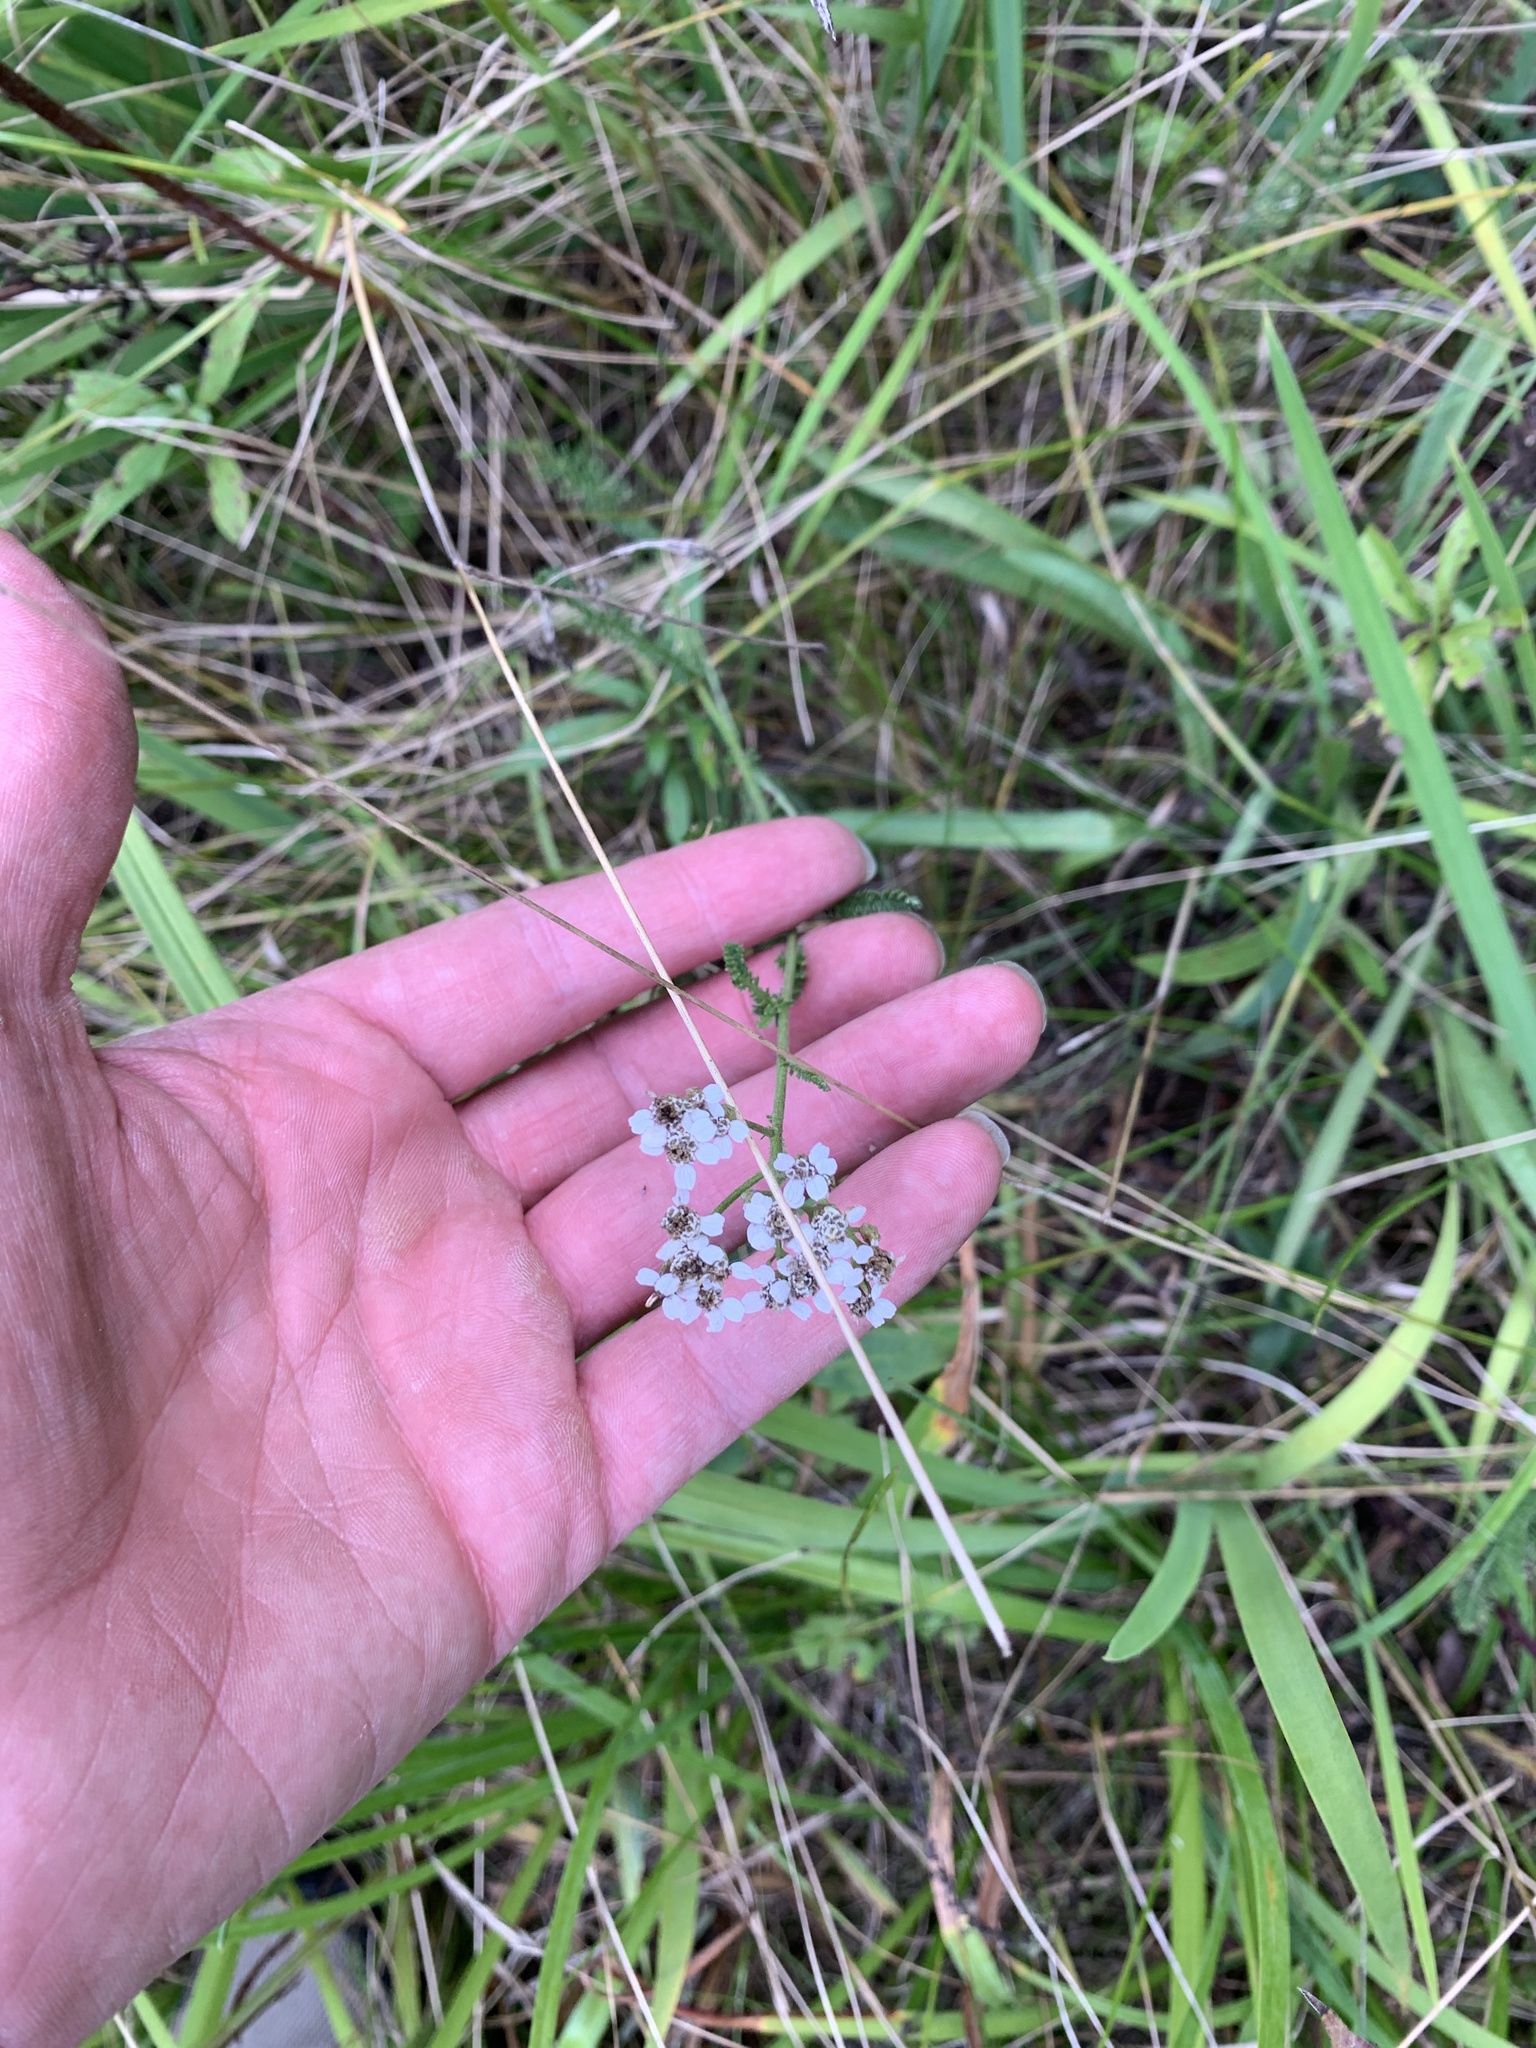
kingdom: Plantae
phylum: Tracheophyta
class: Magnoliopsida
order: Asterales
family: Asteraceae
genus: Achillea
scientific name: Achillea millefolium
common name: Yarrow
